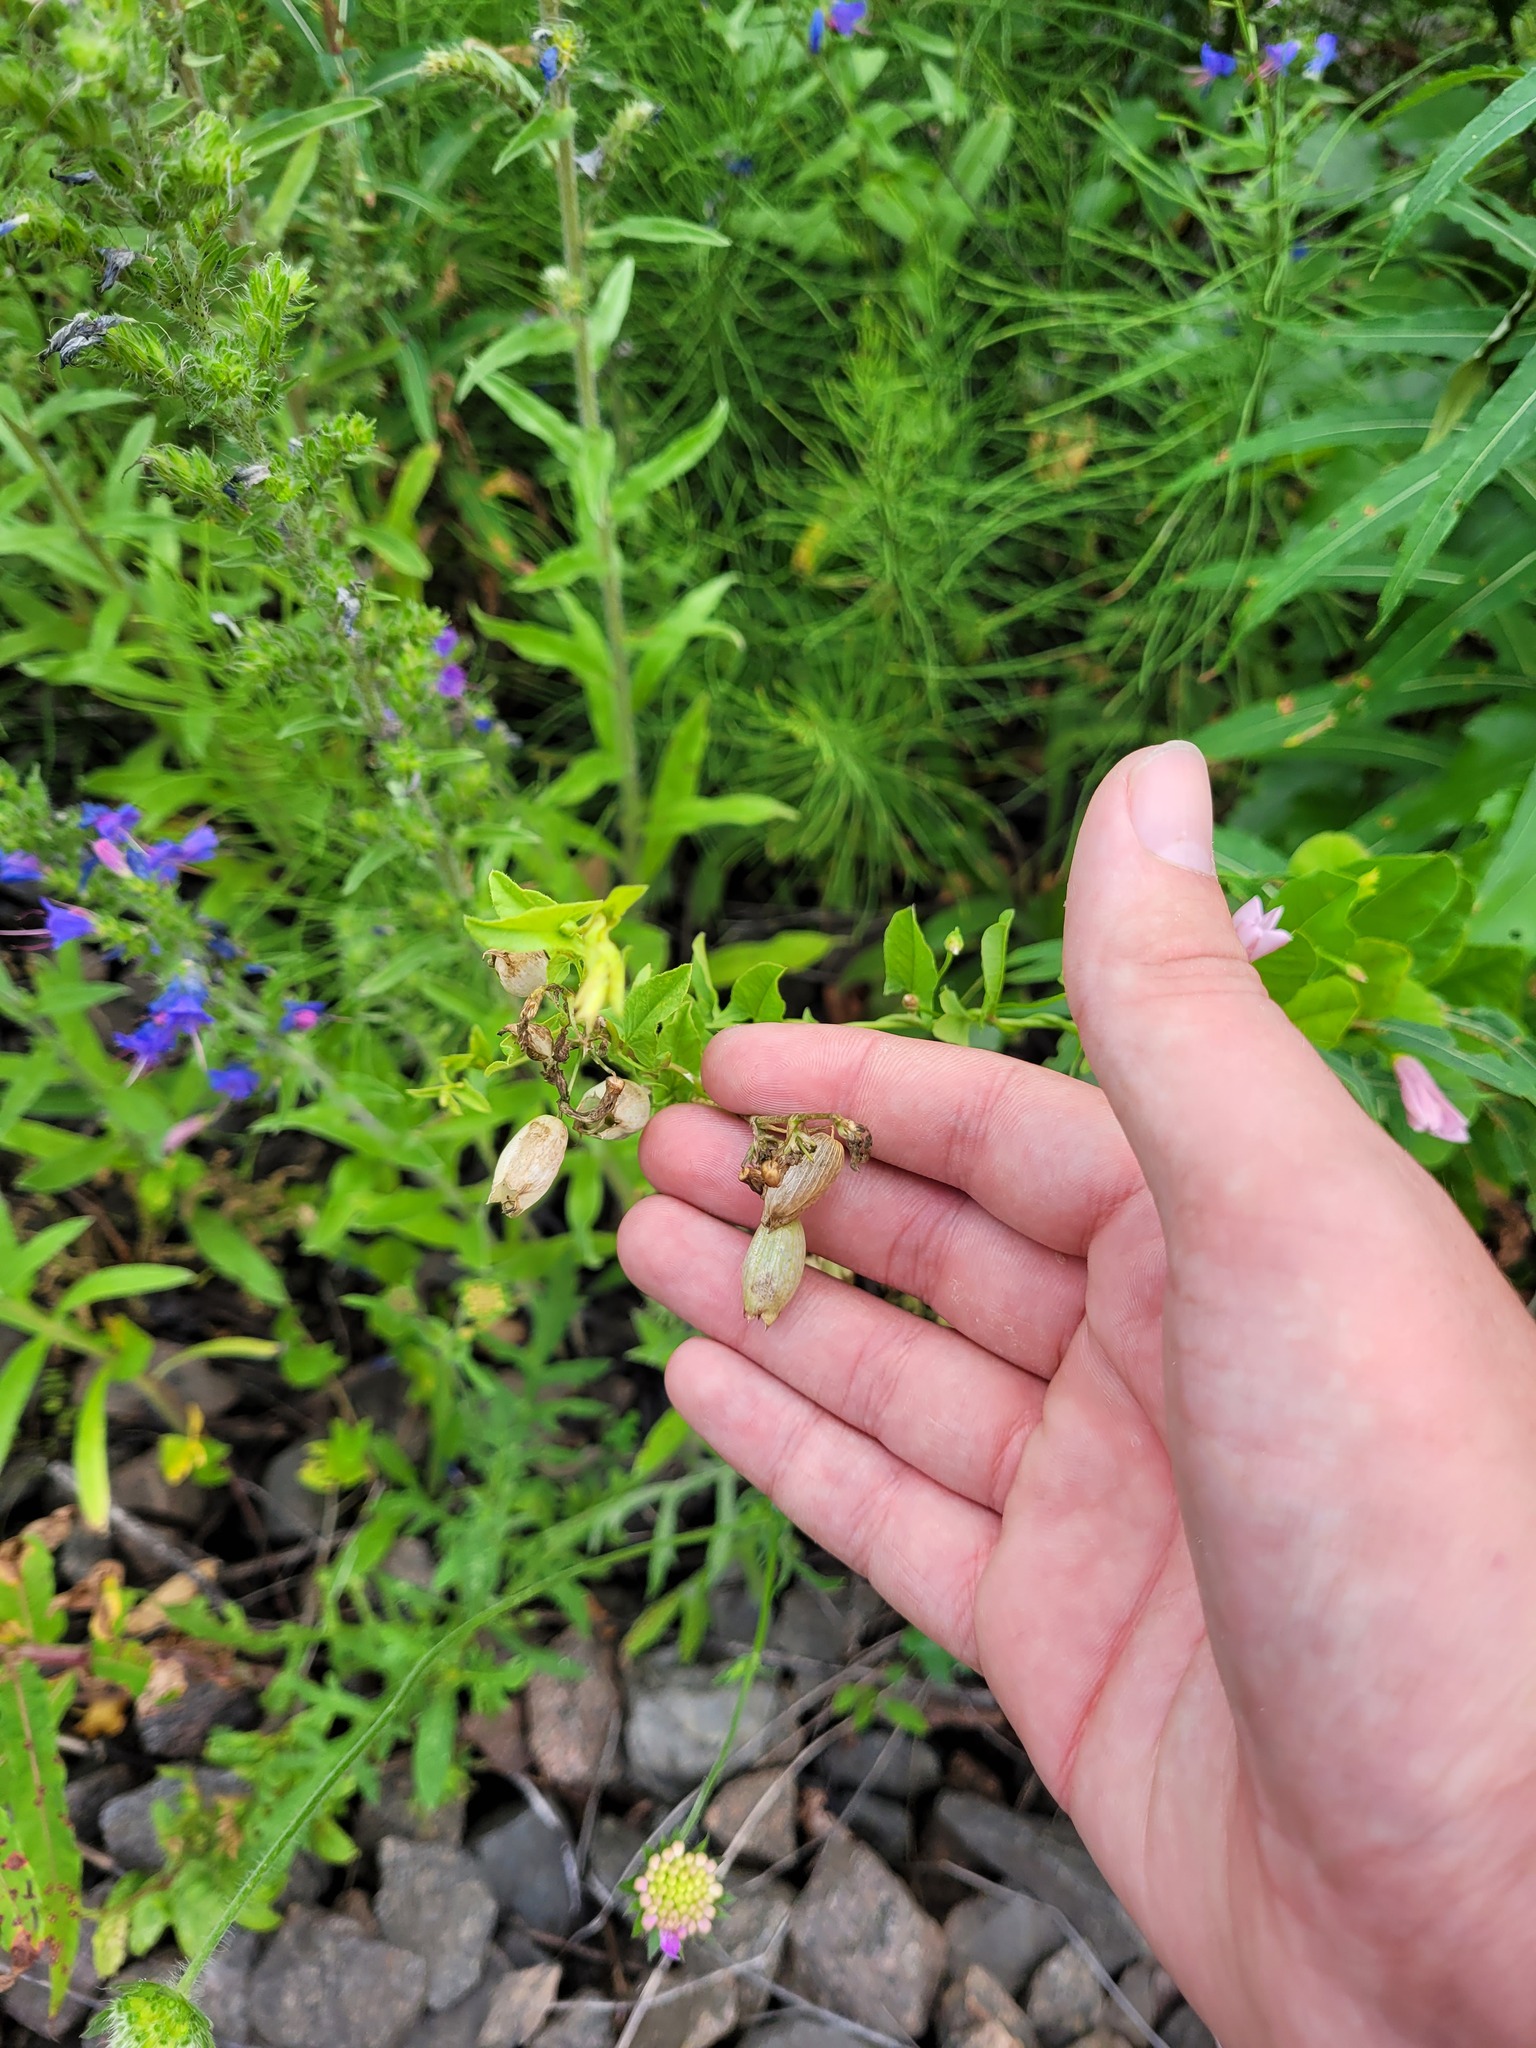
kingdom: Plantae
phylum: Tracheophyta
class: Magnoliopsida
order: Caryophyllales
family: Caryophyllaceae
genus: Silene
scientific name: Silene vulgaris
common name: Bladder campion
